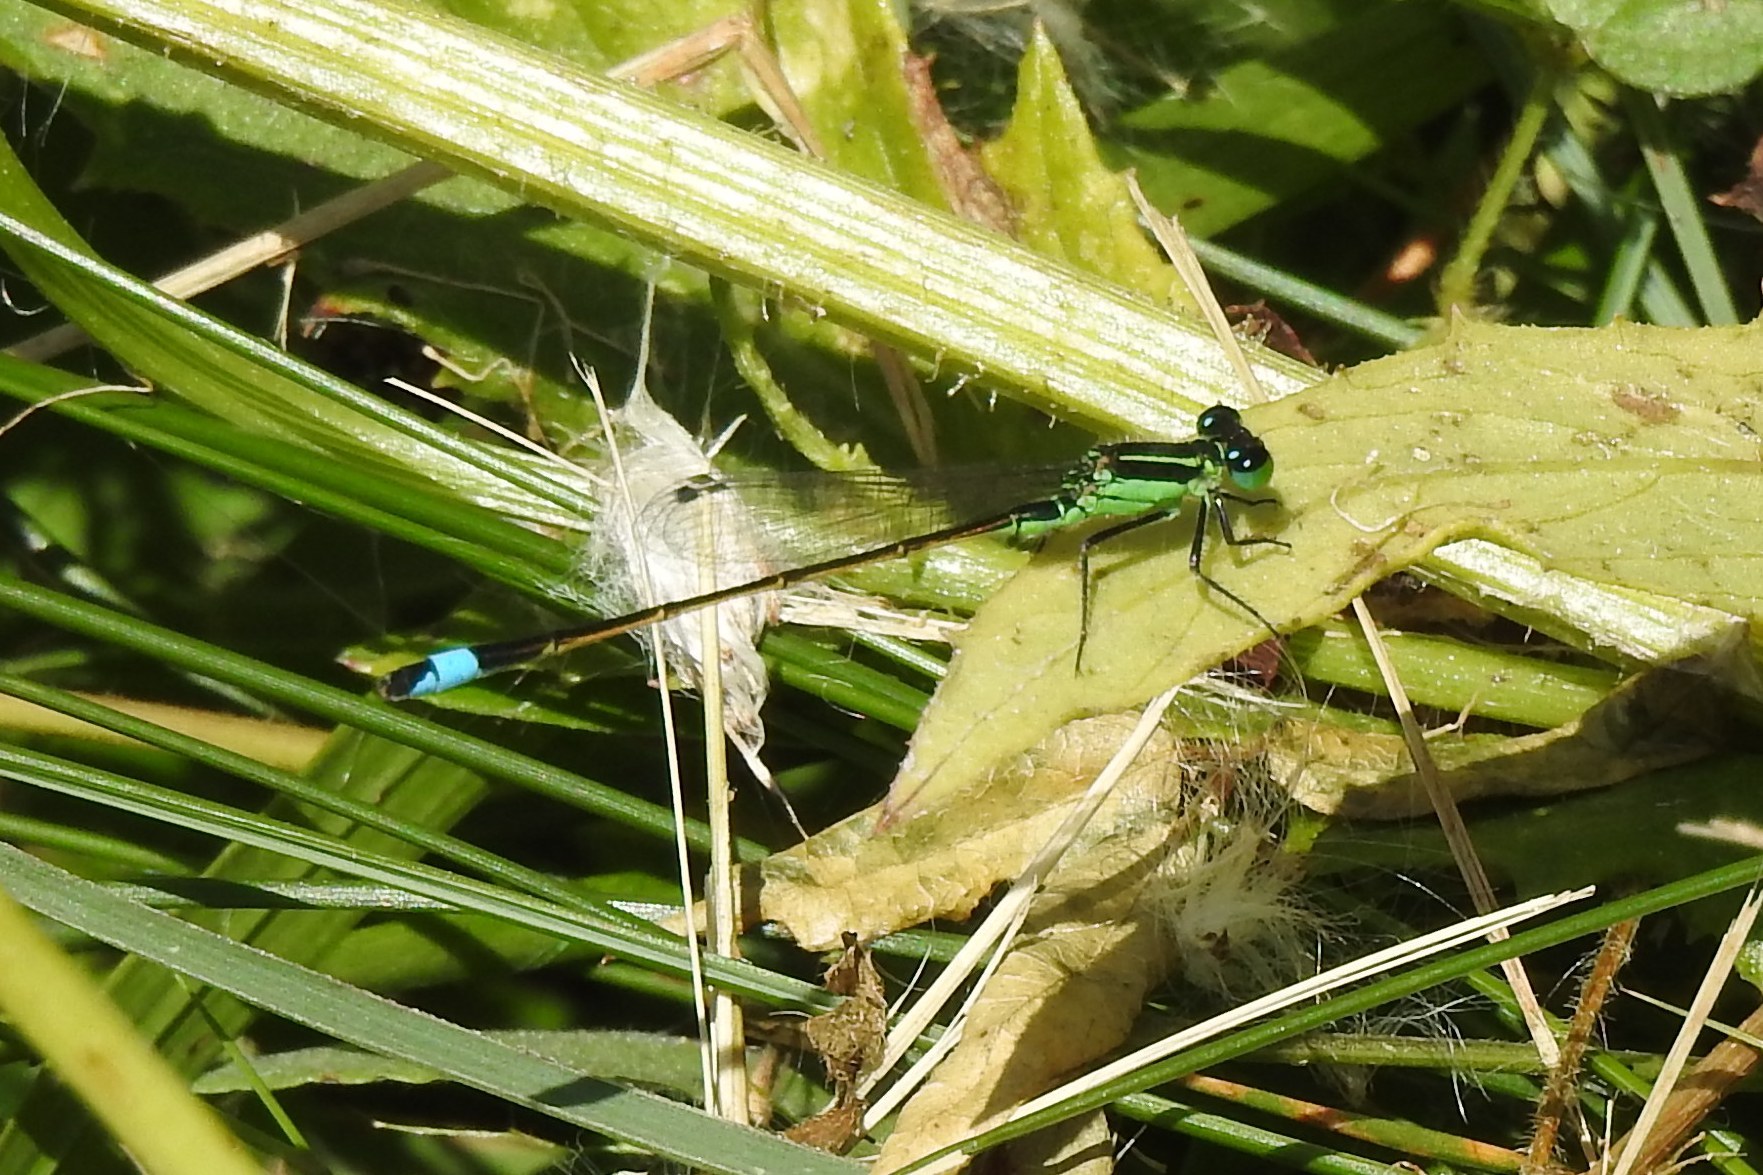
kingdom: Animalia
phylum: Arthropoda
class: Insecta
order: Odonata
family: Coenagrionidae
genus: Ischnura
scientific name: Ischnura ramburii
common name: Rambur's forktail
